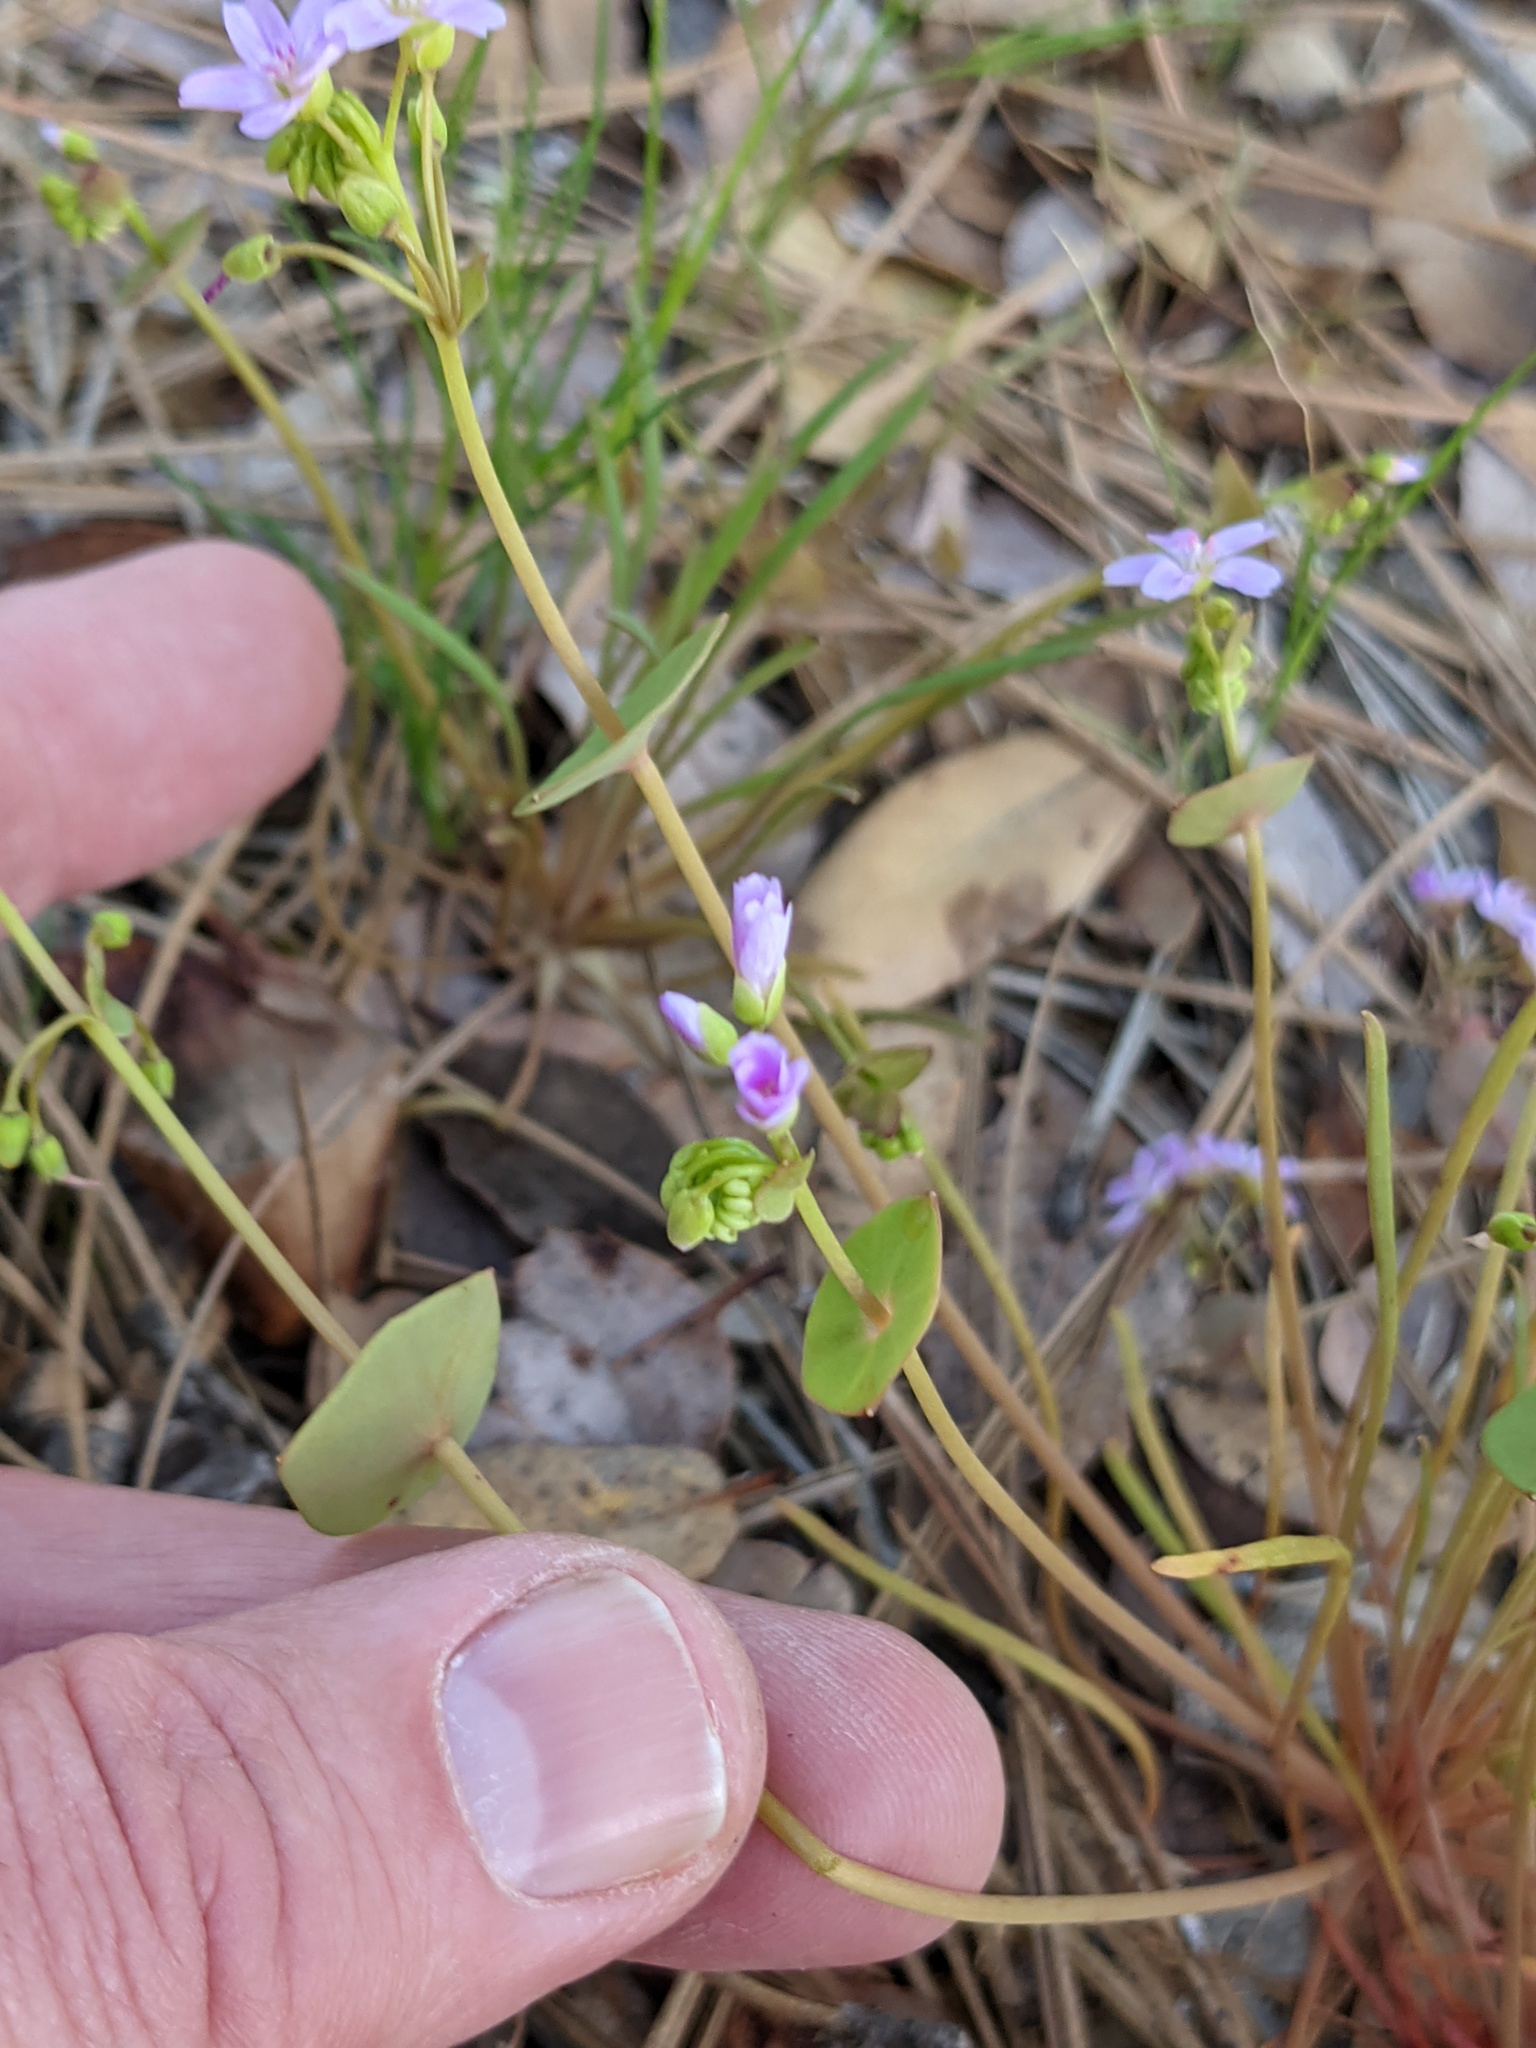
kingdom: Plantae
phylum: Tracheophyta
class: Magnoliopsida
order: Caryophyllales
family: Montiaceae
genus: Claytonia
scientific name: Claytonia parviflora
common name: Indian-lettuce
